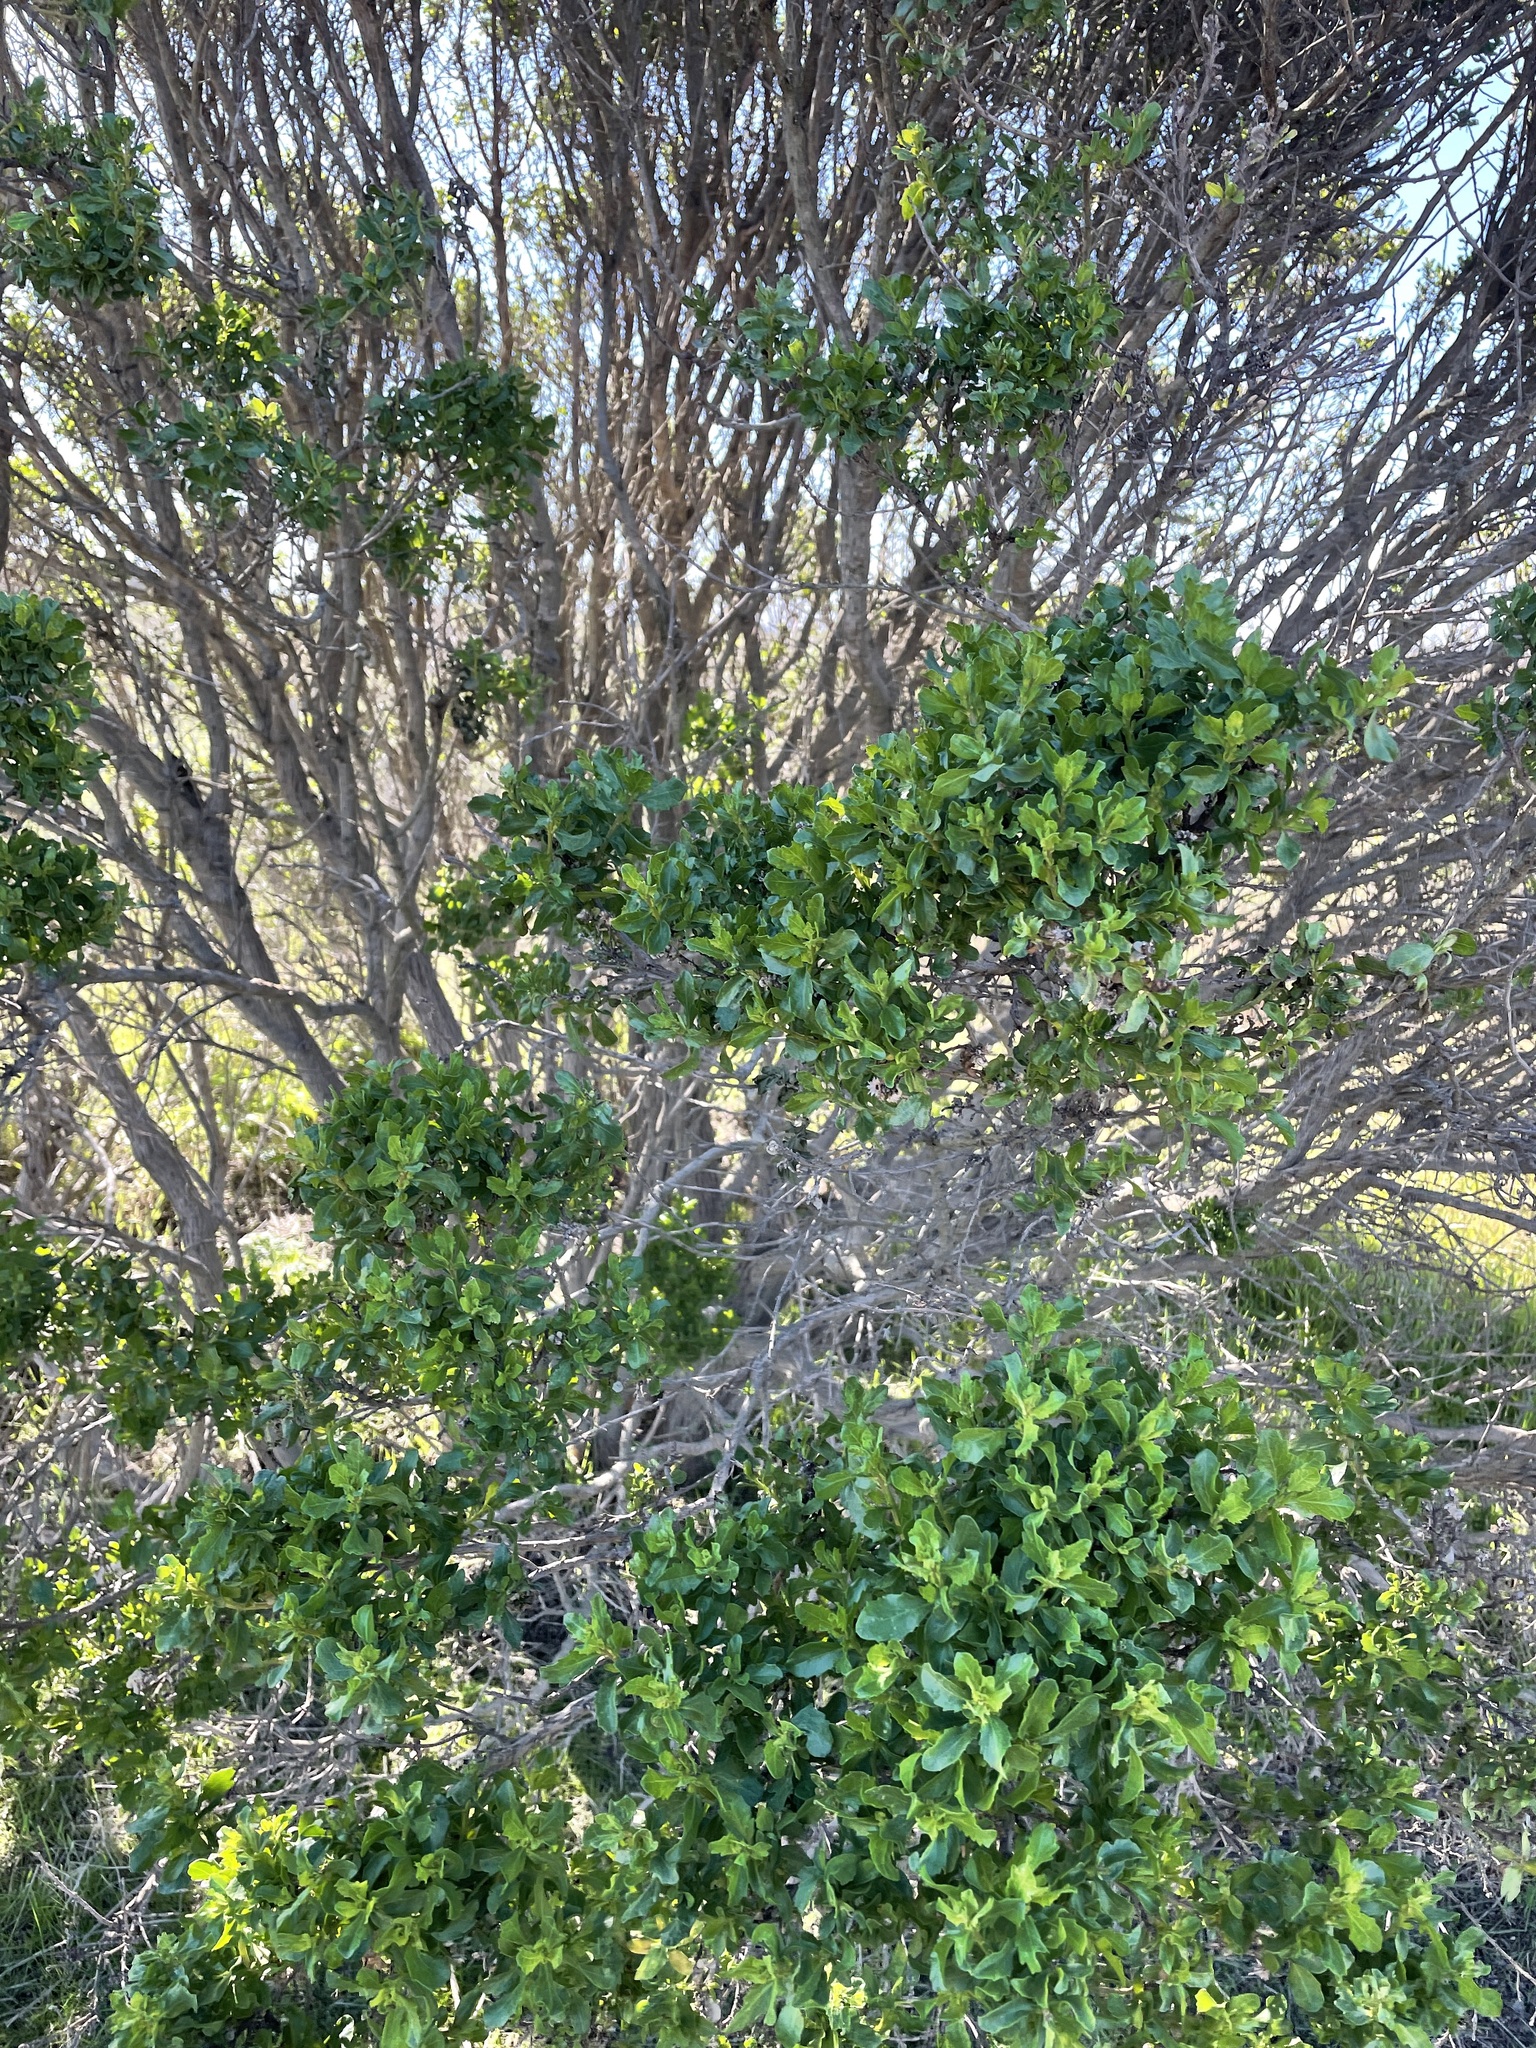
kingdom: Plantae
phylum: Tracheophyta
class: Magnoliopsida
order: Asterales
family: Asteraceae
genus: Baccharis
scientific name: Baccharis pilularis
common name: Coyotebrush
